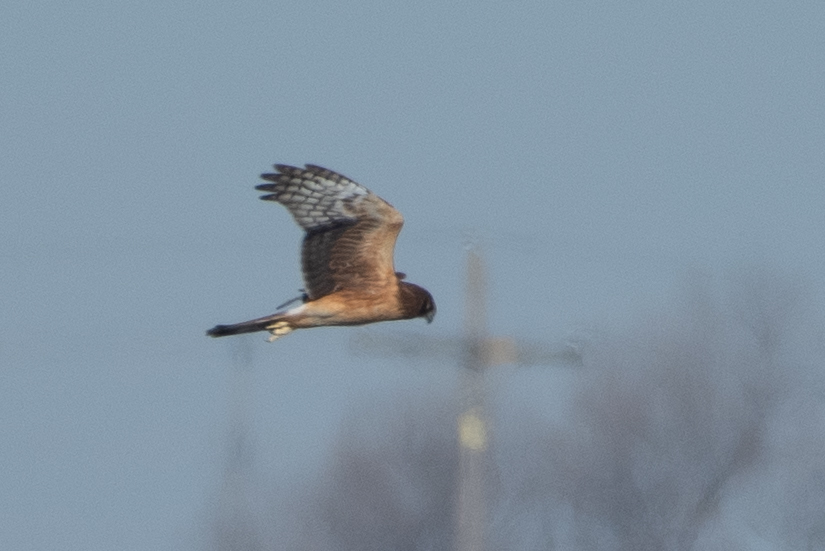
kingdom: Animalia
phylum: Chordata
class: Aves
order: Accipitriformes
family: Accipitridae
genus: Circus
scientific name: Circus cyaneus
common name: Hen harrier
